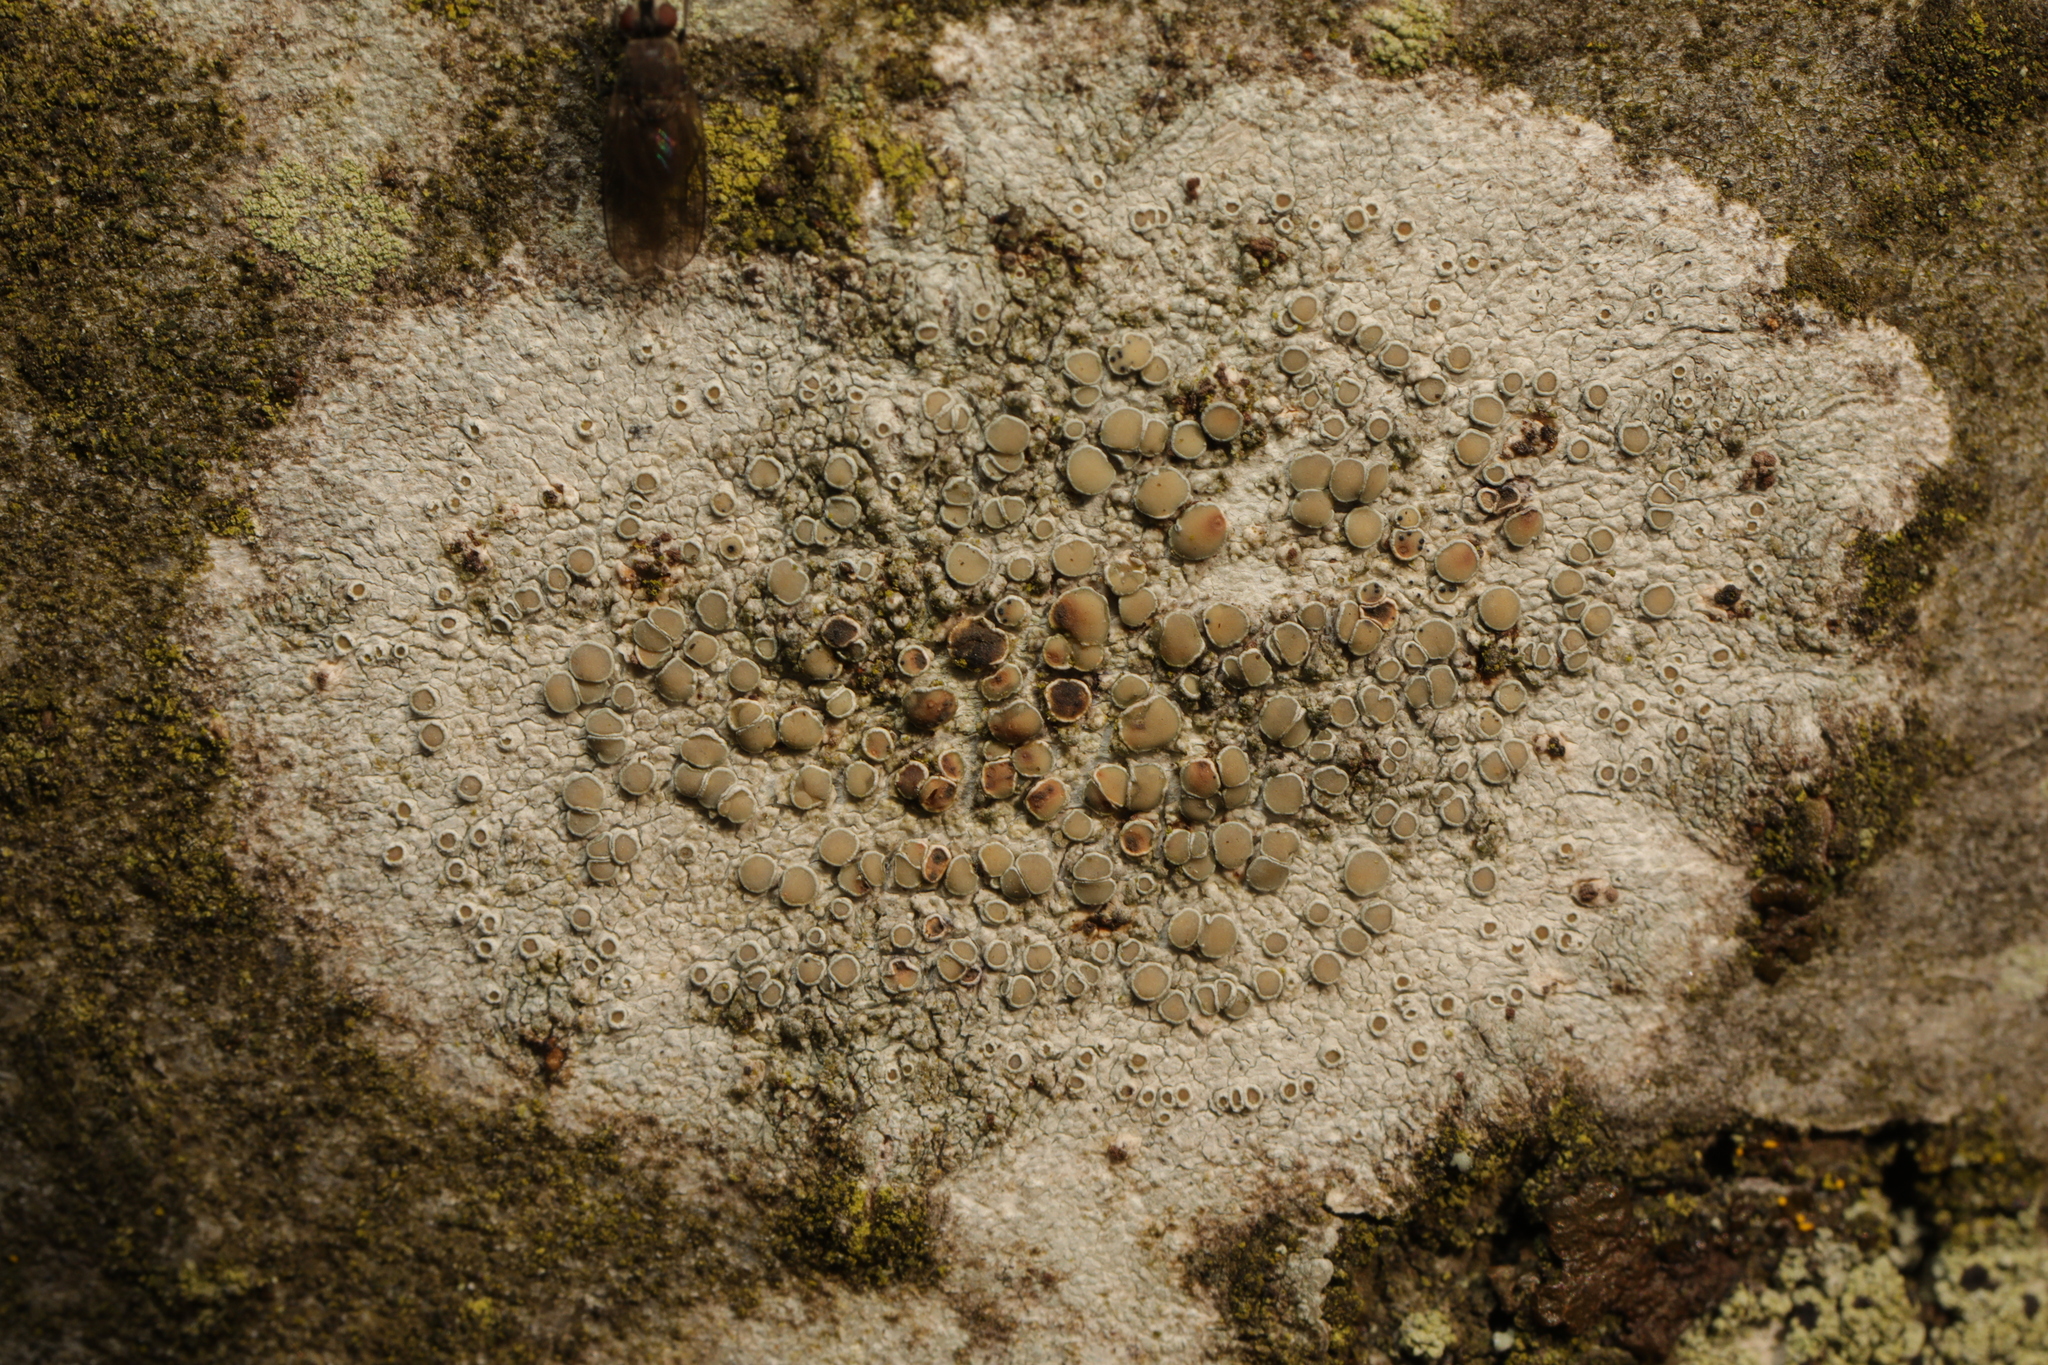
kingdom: Fungi
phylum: Ascomycota
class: Lecanoromycetes
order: Lecanorales
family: Lecanoraceae
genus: Lecanora
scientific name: Lecanora
